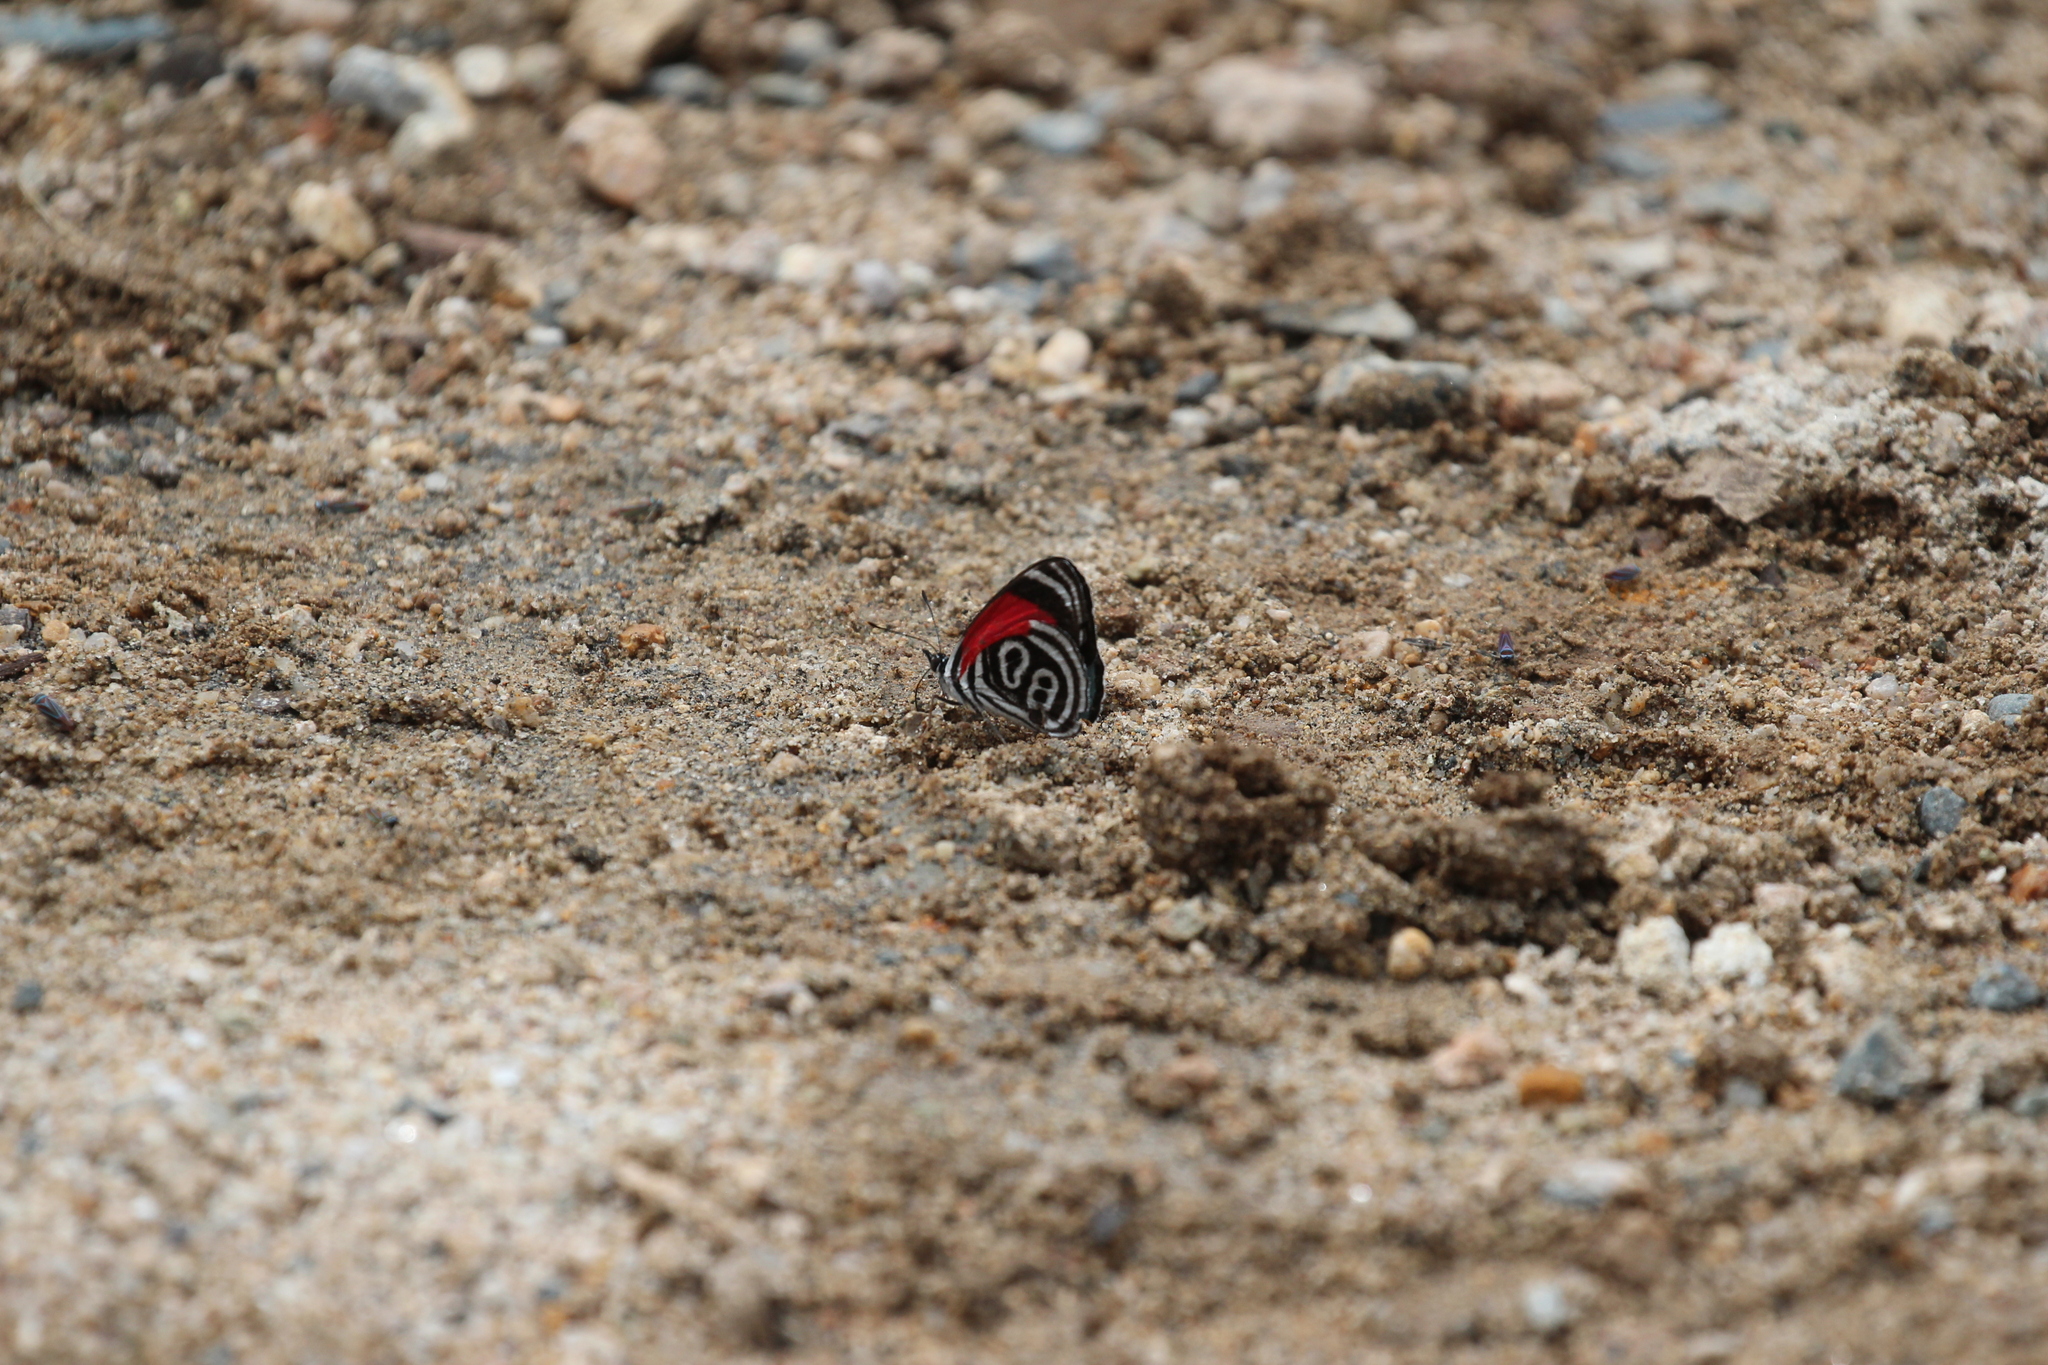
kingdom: Animalia
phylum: Arthropoda
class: Insecta
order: Lepidoptera
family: Nymphalidae
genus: Diaethria
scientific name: Diaethria clymena
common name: Widespread eighty-eight
